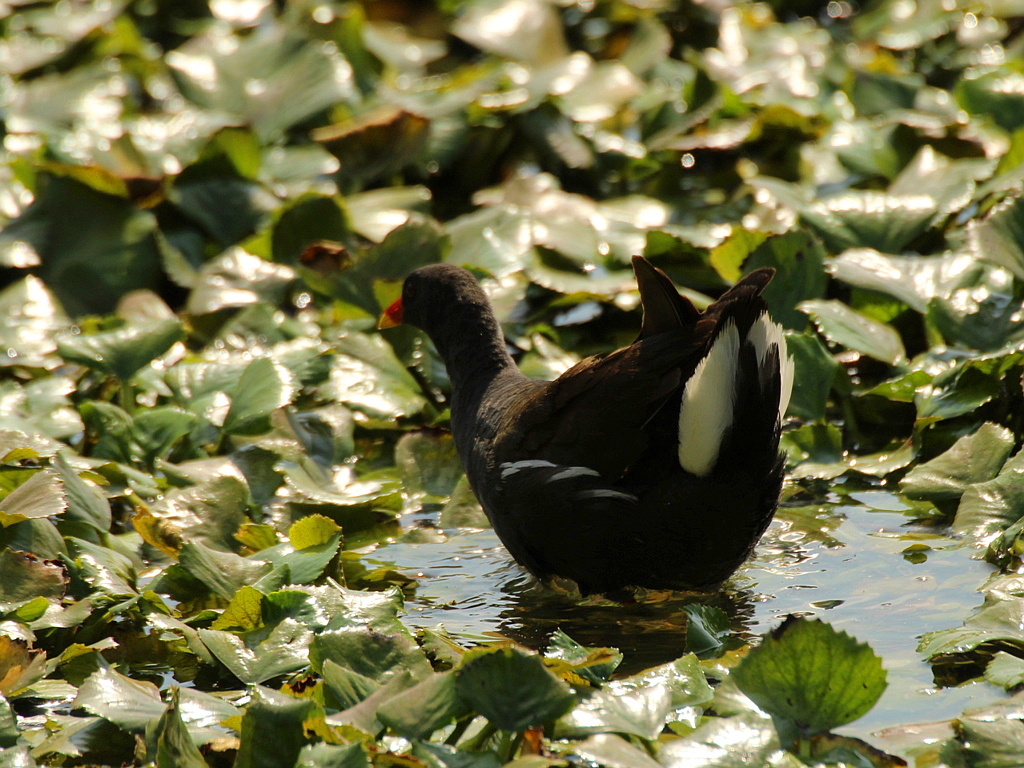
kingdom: Animalia
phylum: Chordata
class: Aves
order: Gruiformes
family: Rallidae
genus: Gallinula
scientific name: Gallinula chloropus
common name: Common moorhen
